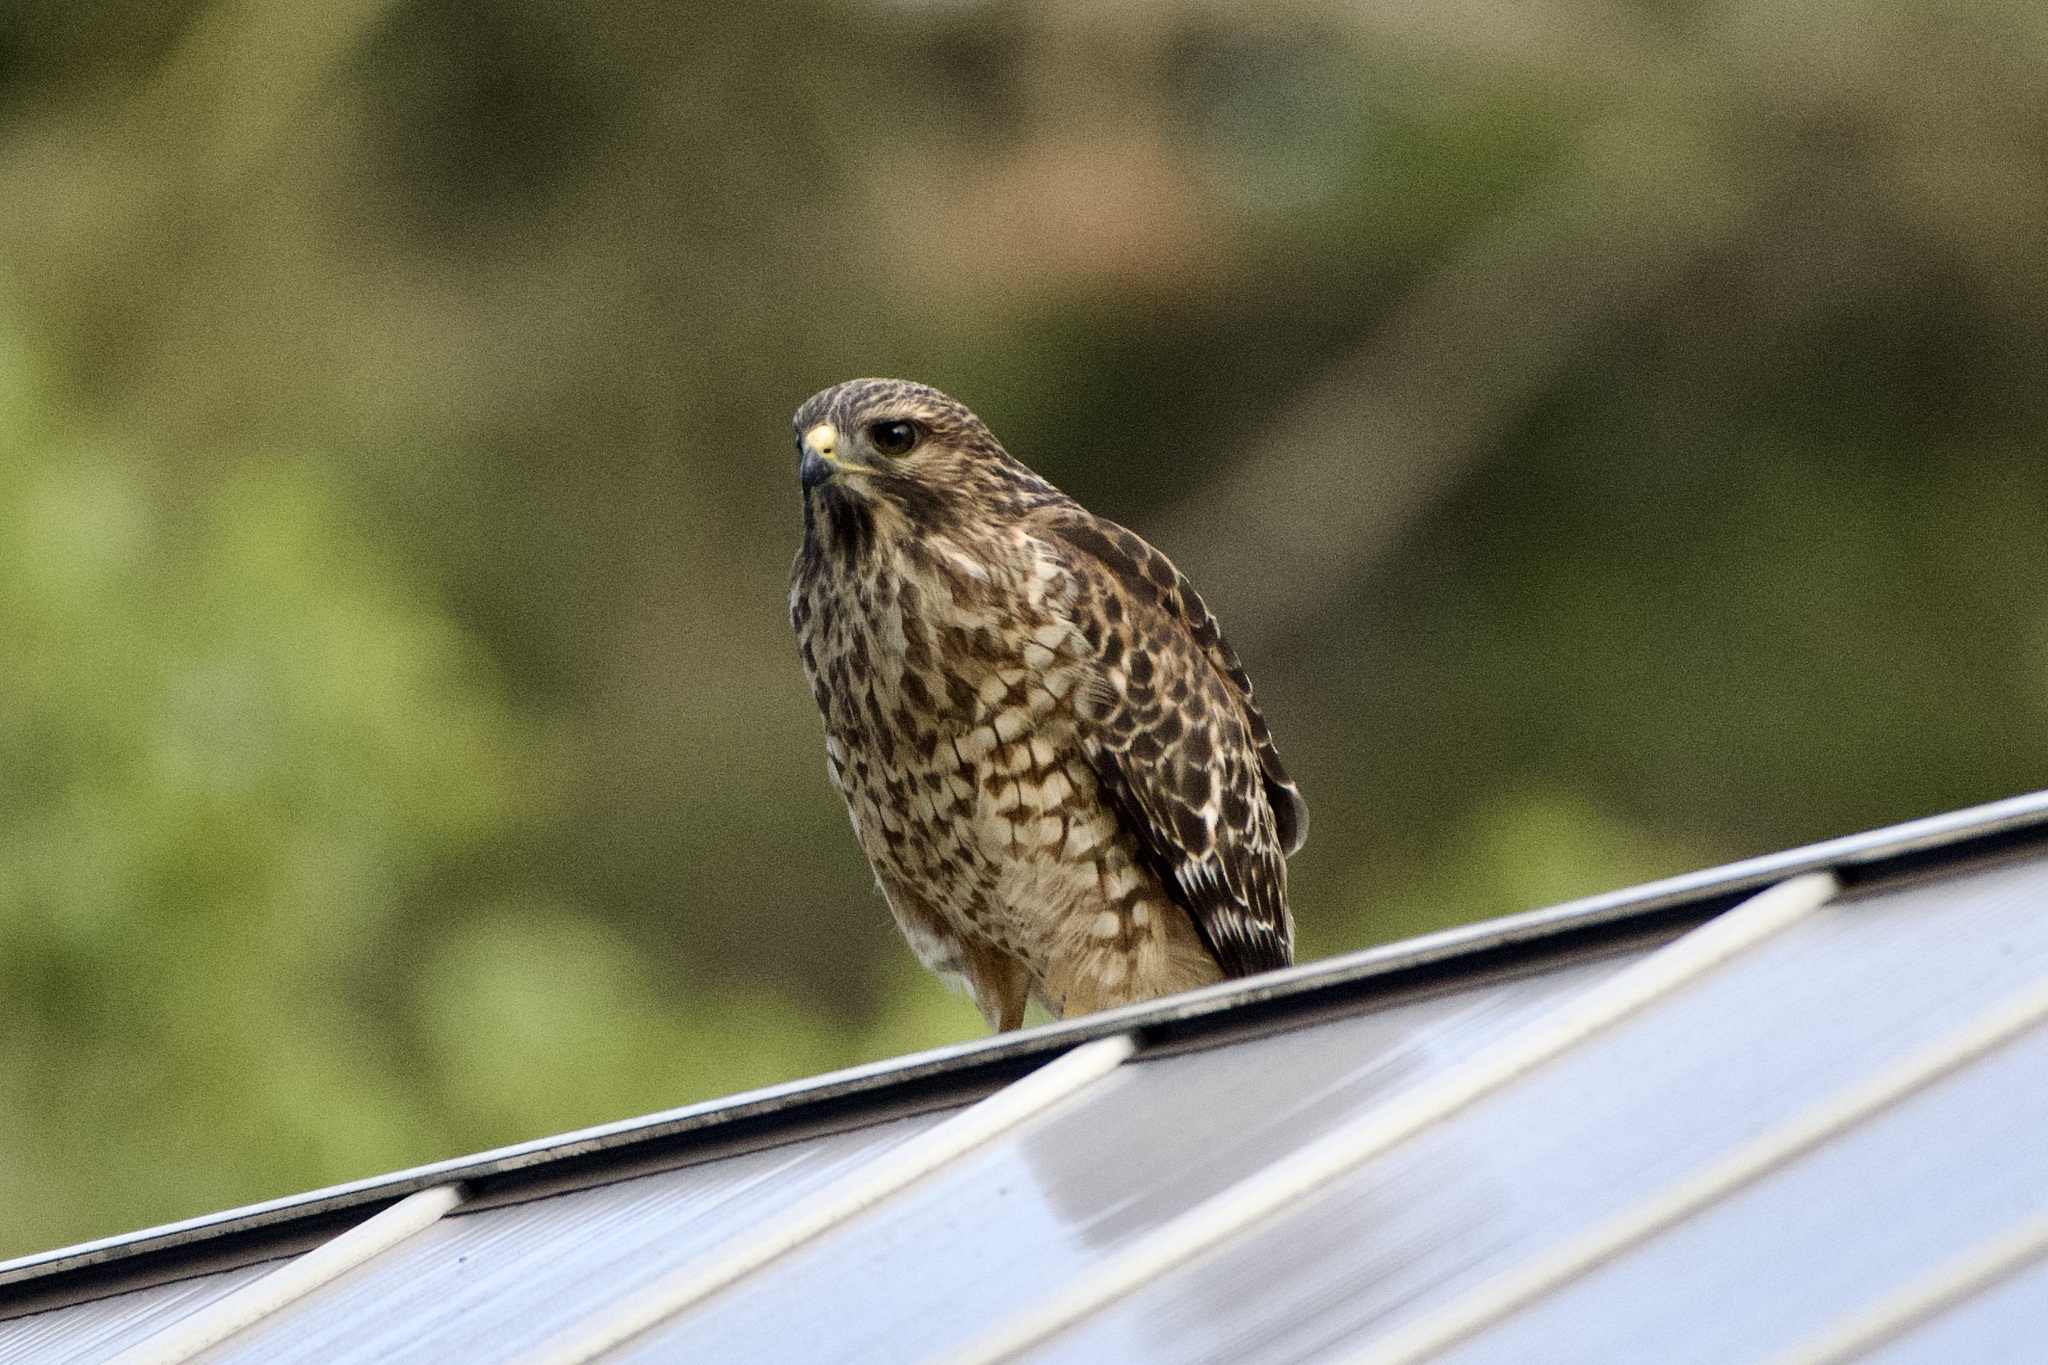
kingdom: Animalia
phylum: Chordata
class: Aves
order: Accipitriformes
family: Accipitridae
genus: Buteo
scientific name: Buteo lineatus
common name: Red-shouldered hawk
